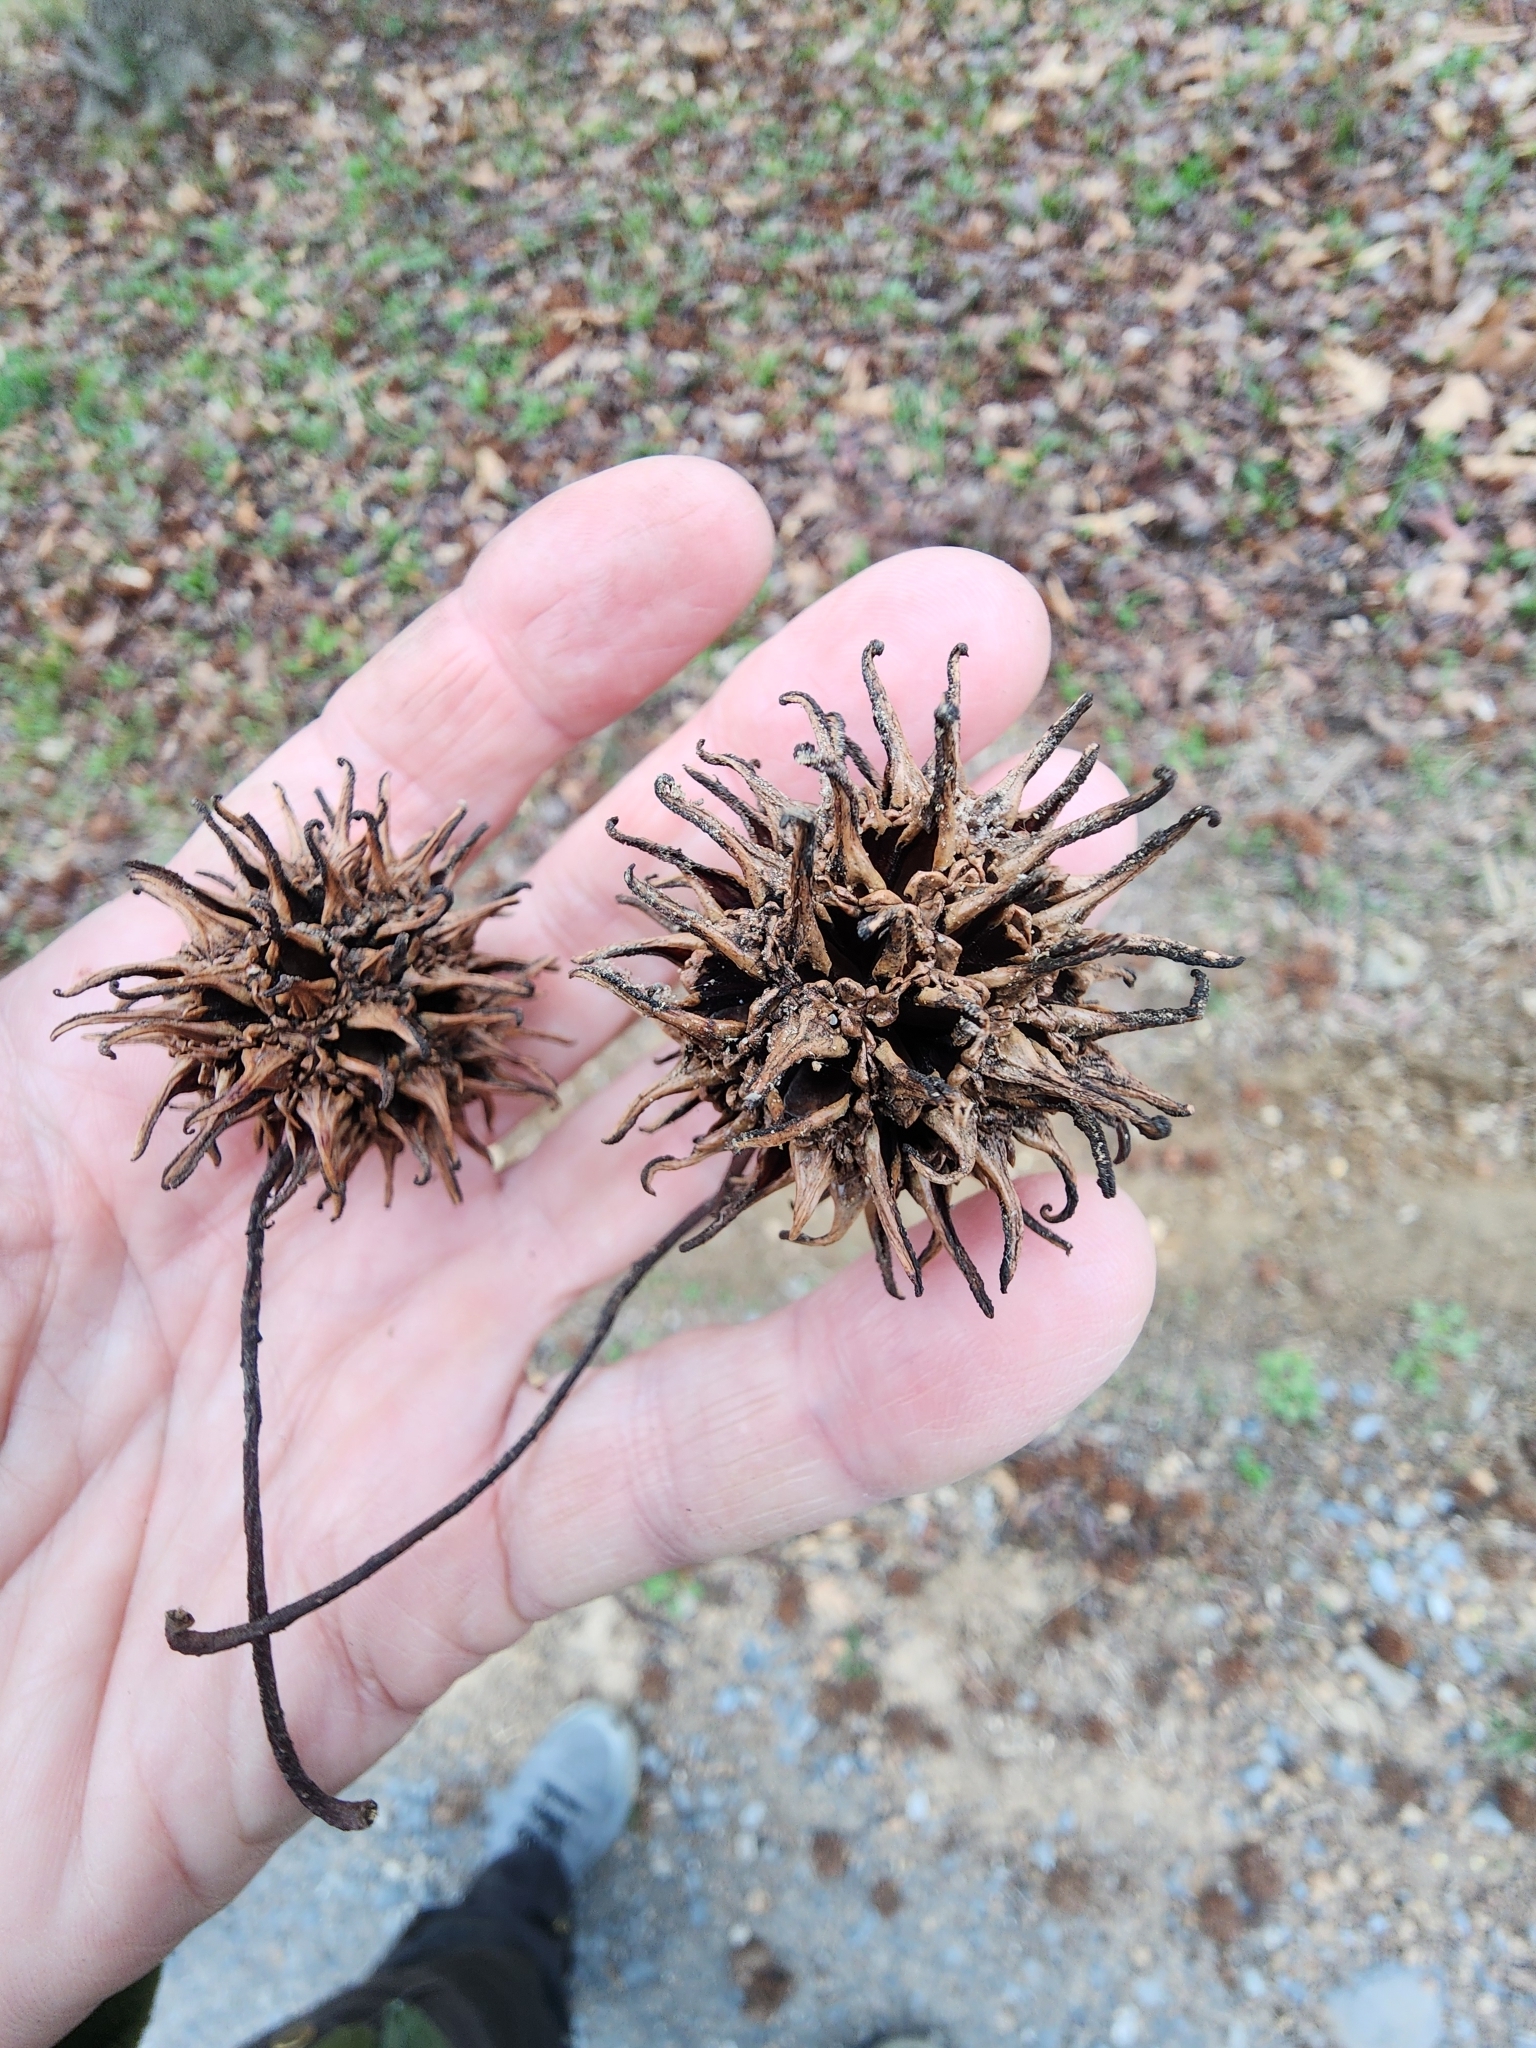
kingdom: Plantae
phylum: Tracheophyta
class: Magnoliopsida
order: Saxifragales
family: Altingiaceae
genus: Liquidambar
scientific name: Liquidambar styraciflua
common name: Sweet gum
